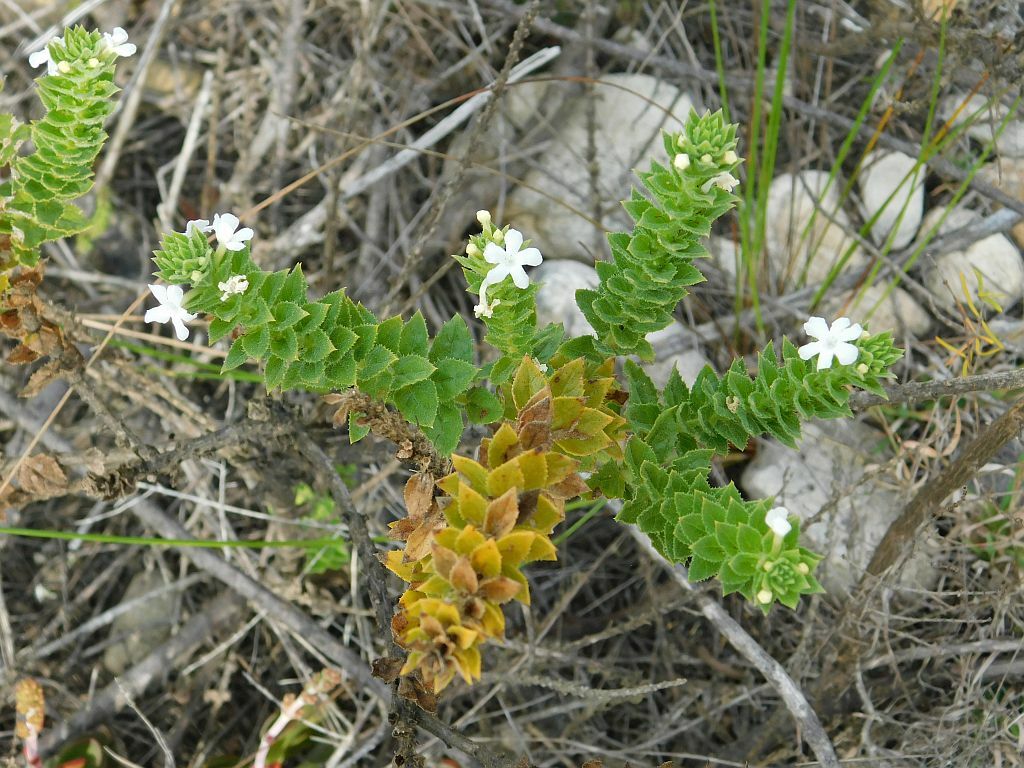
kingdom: Plantae
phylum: Tracheophyta
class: Magnoliopsida
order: Lamiales
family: Scrophulariaceae
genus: Oftia
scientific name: Oftia africana
